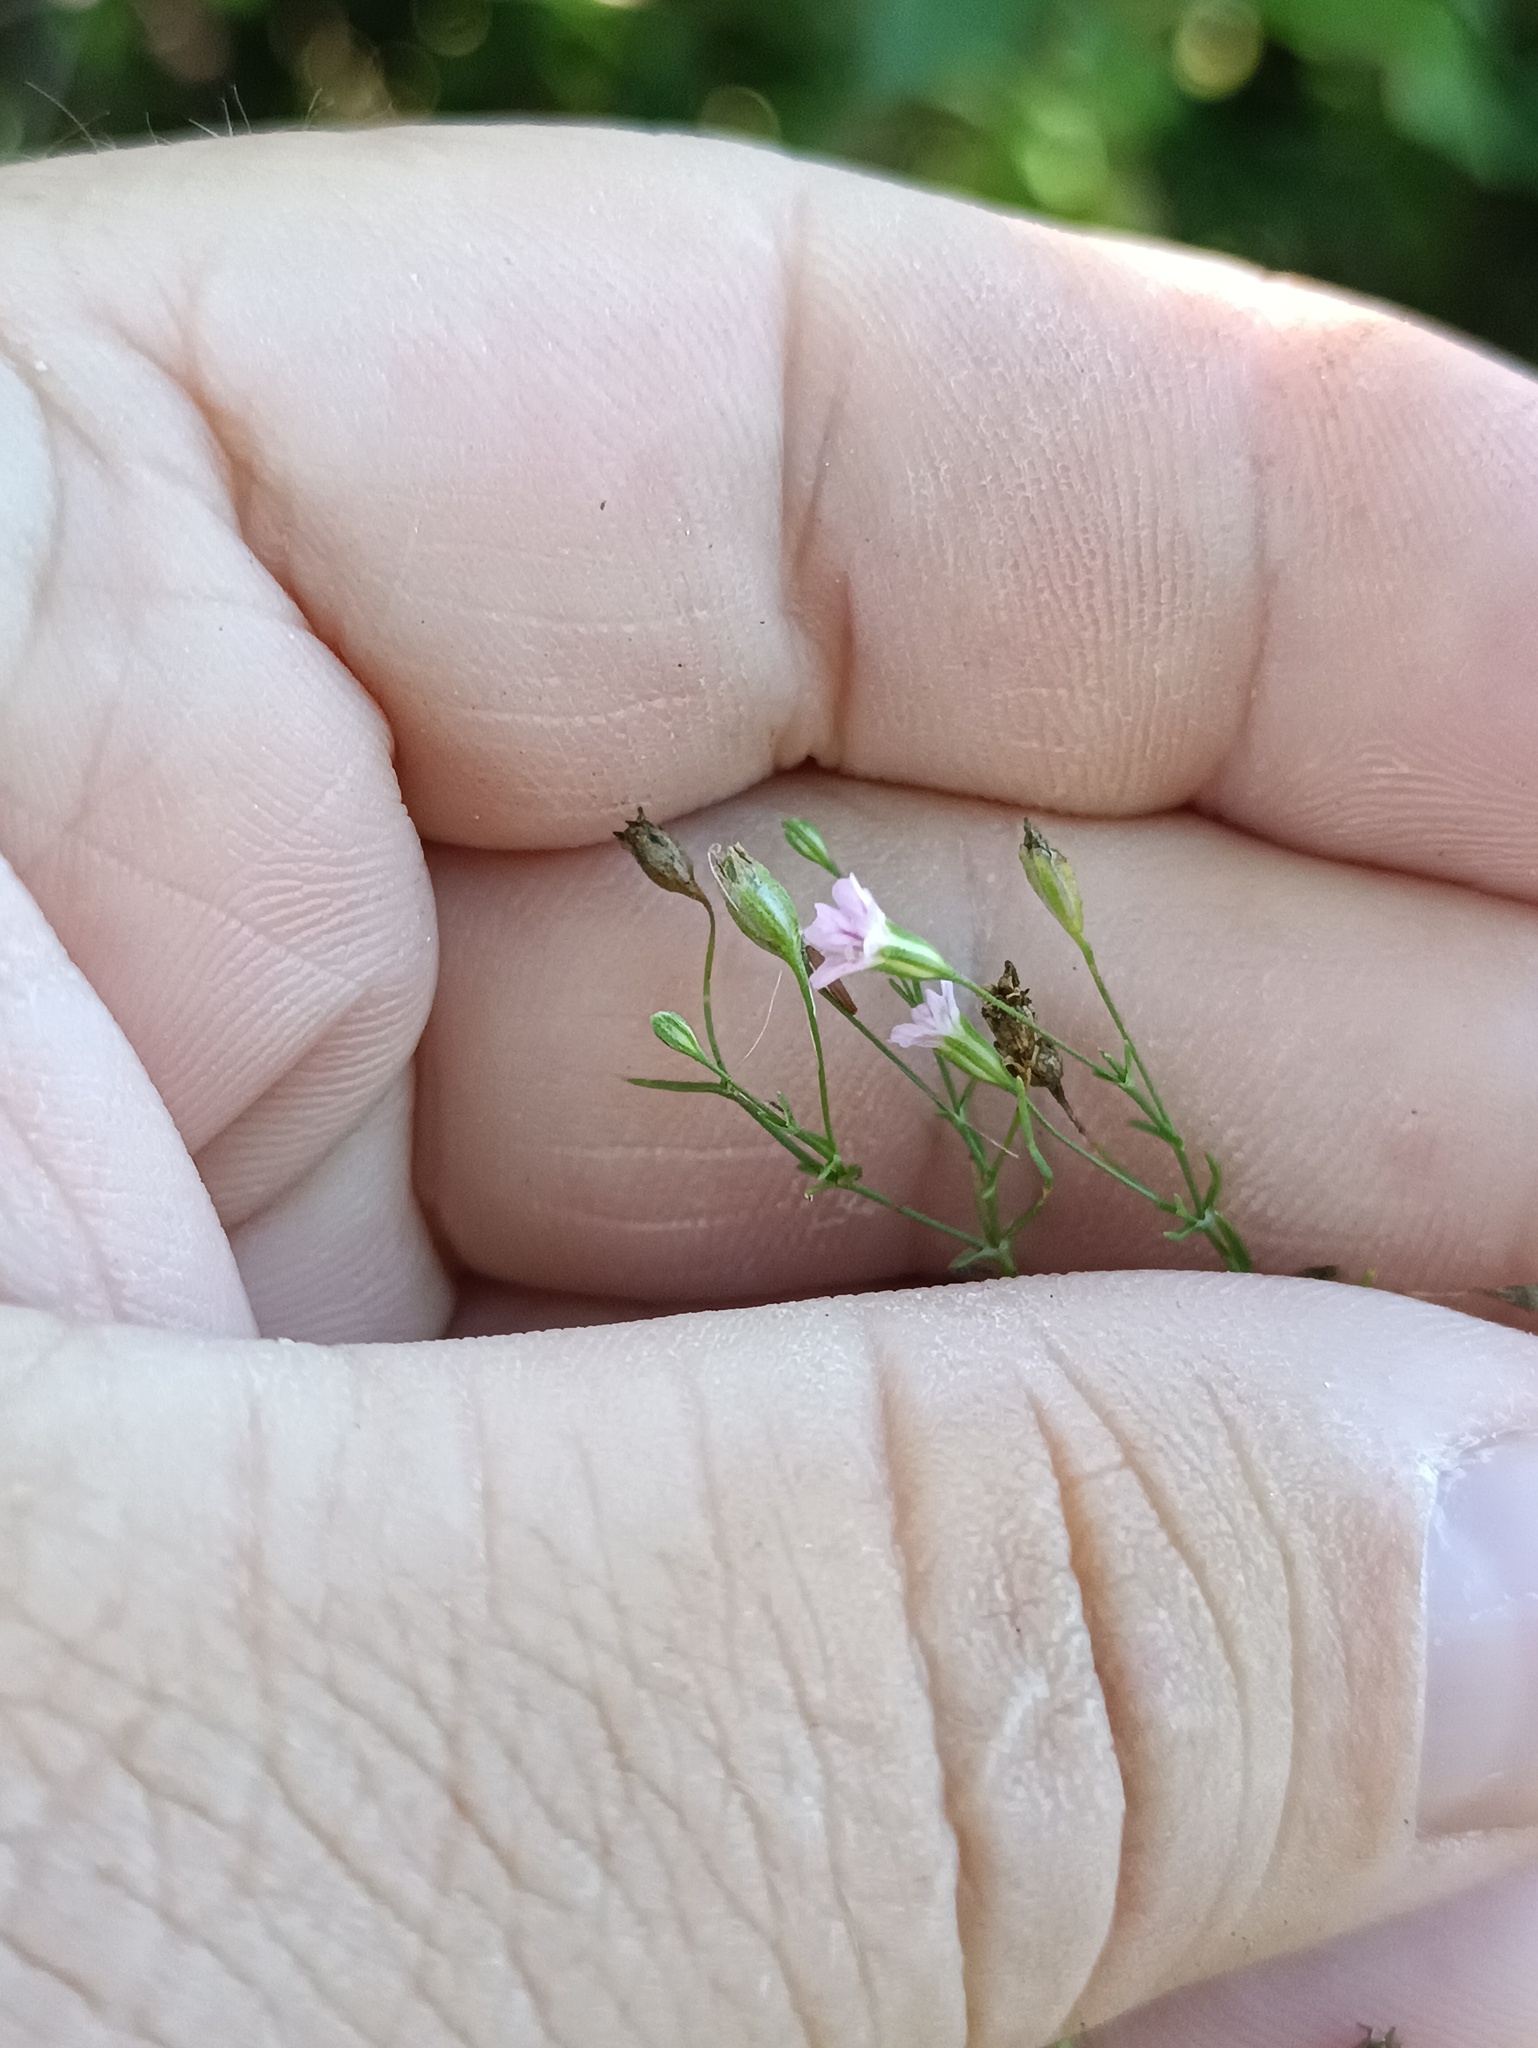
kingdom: Plantae
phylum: Tracheophyta
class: Magnoliopsida
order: Caryophyllales
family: Caryophyllaceae
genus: Psammophiliella
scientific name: Psammophiliella muralis
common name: Cushion baby's-breath
